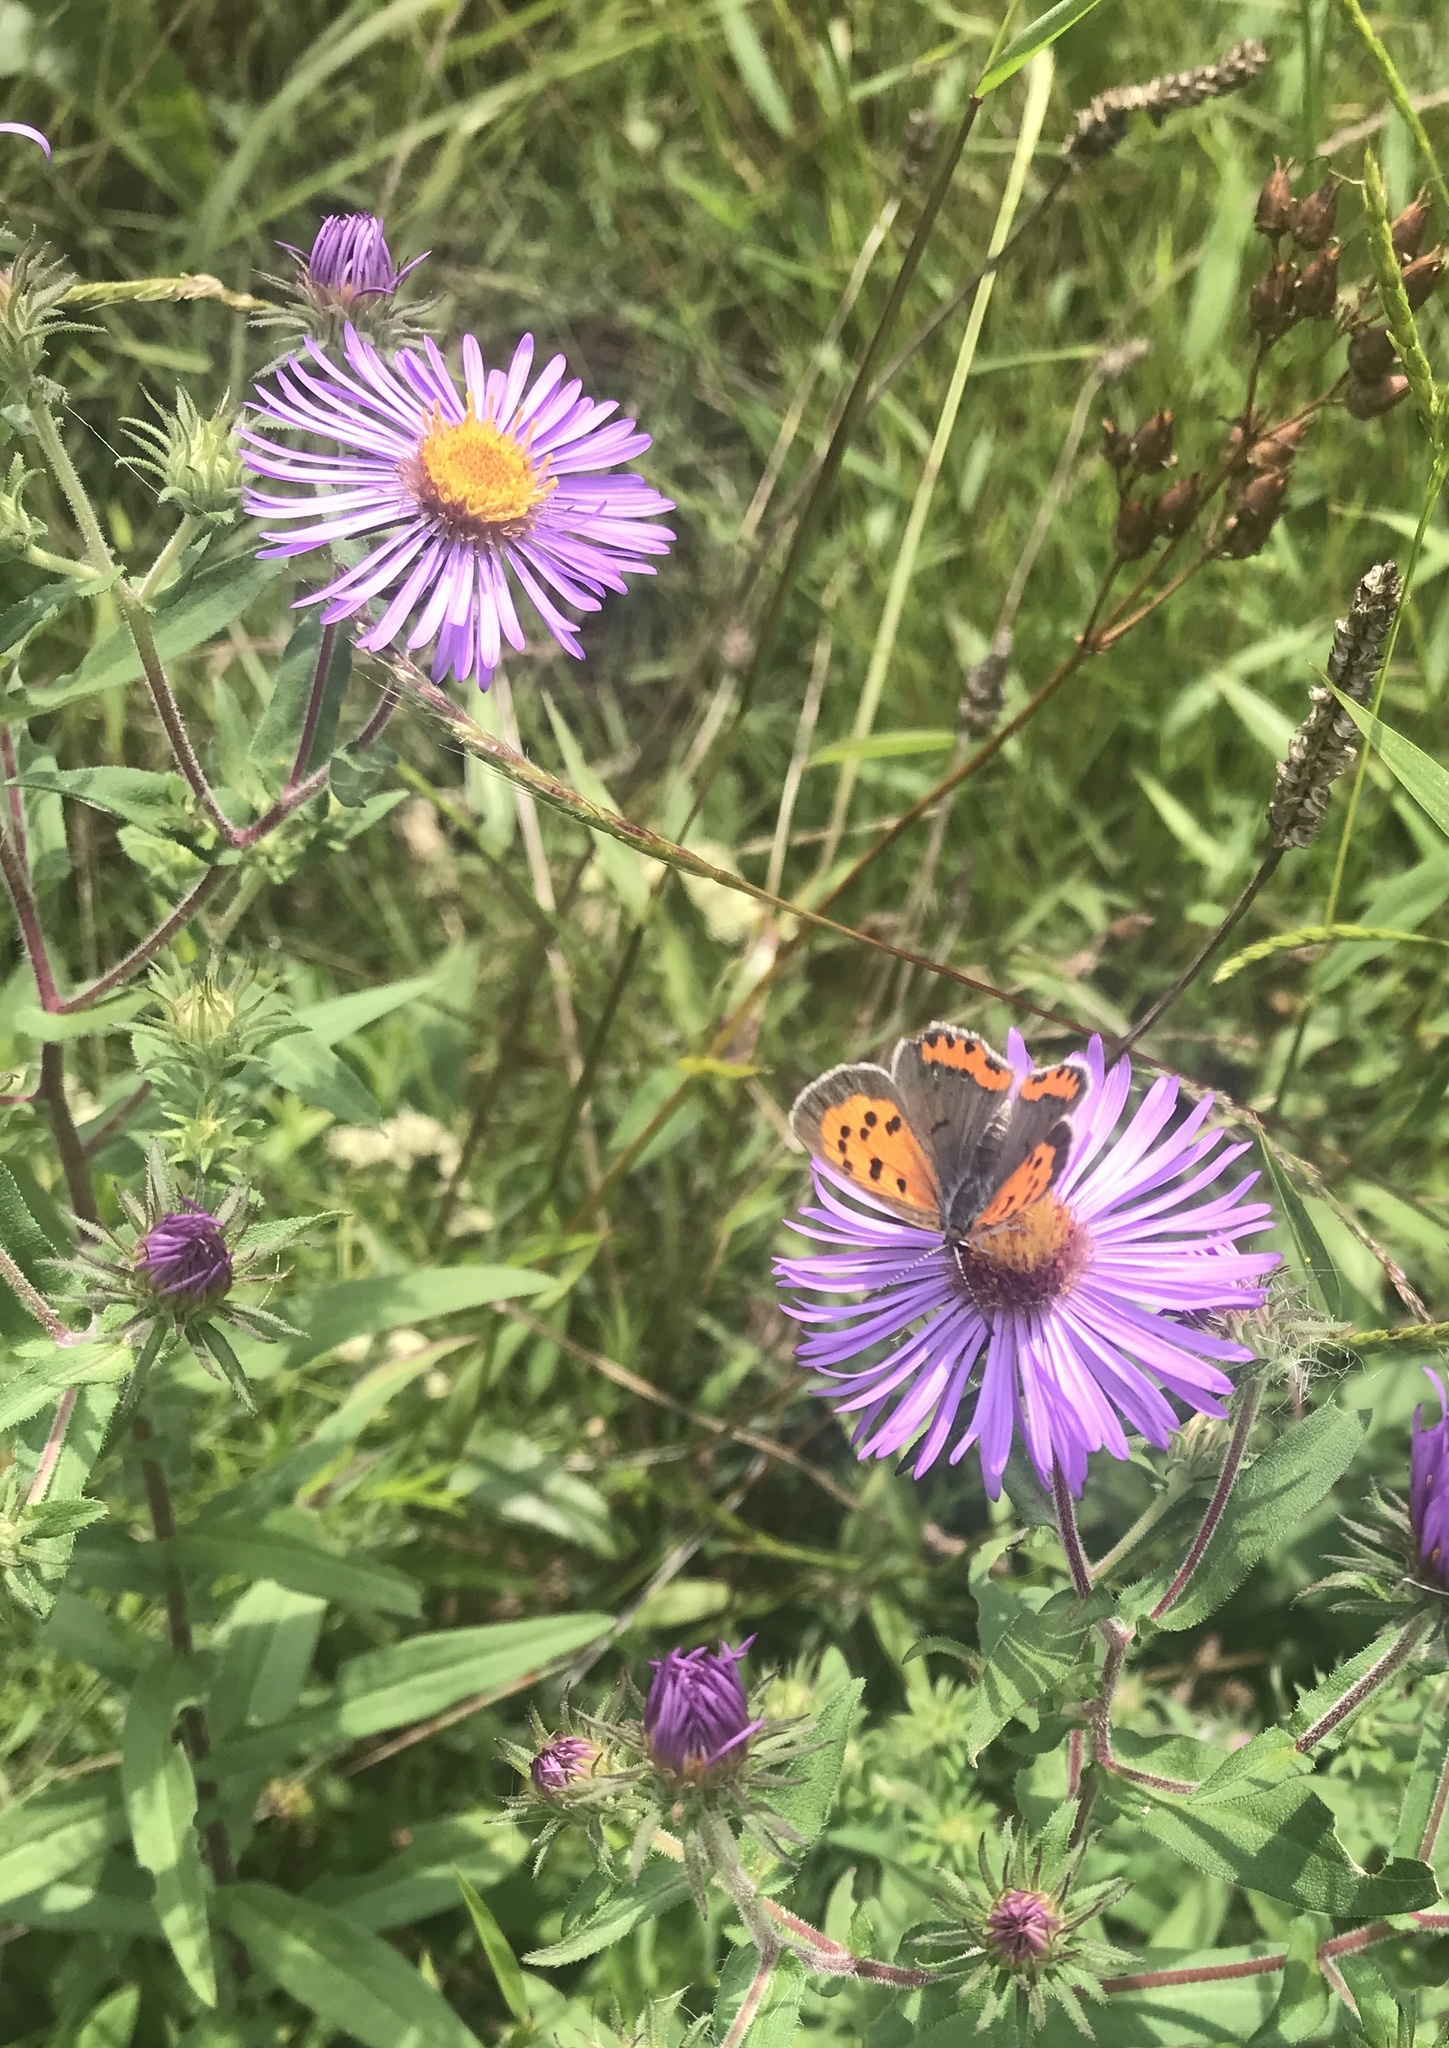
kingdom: Animalia
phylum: Arthropoda
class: Insecta
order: Lepidoptera
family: Lycaenidae
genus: Lycaena
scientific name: Lycaena hypophlaeas
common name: American copper
